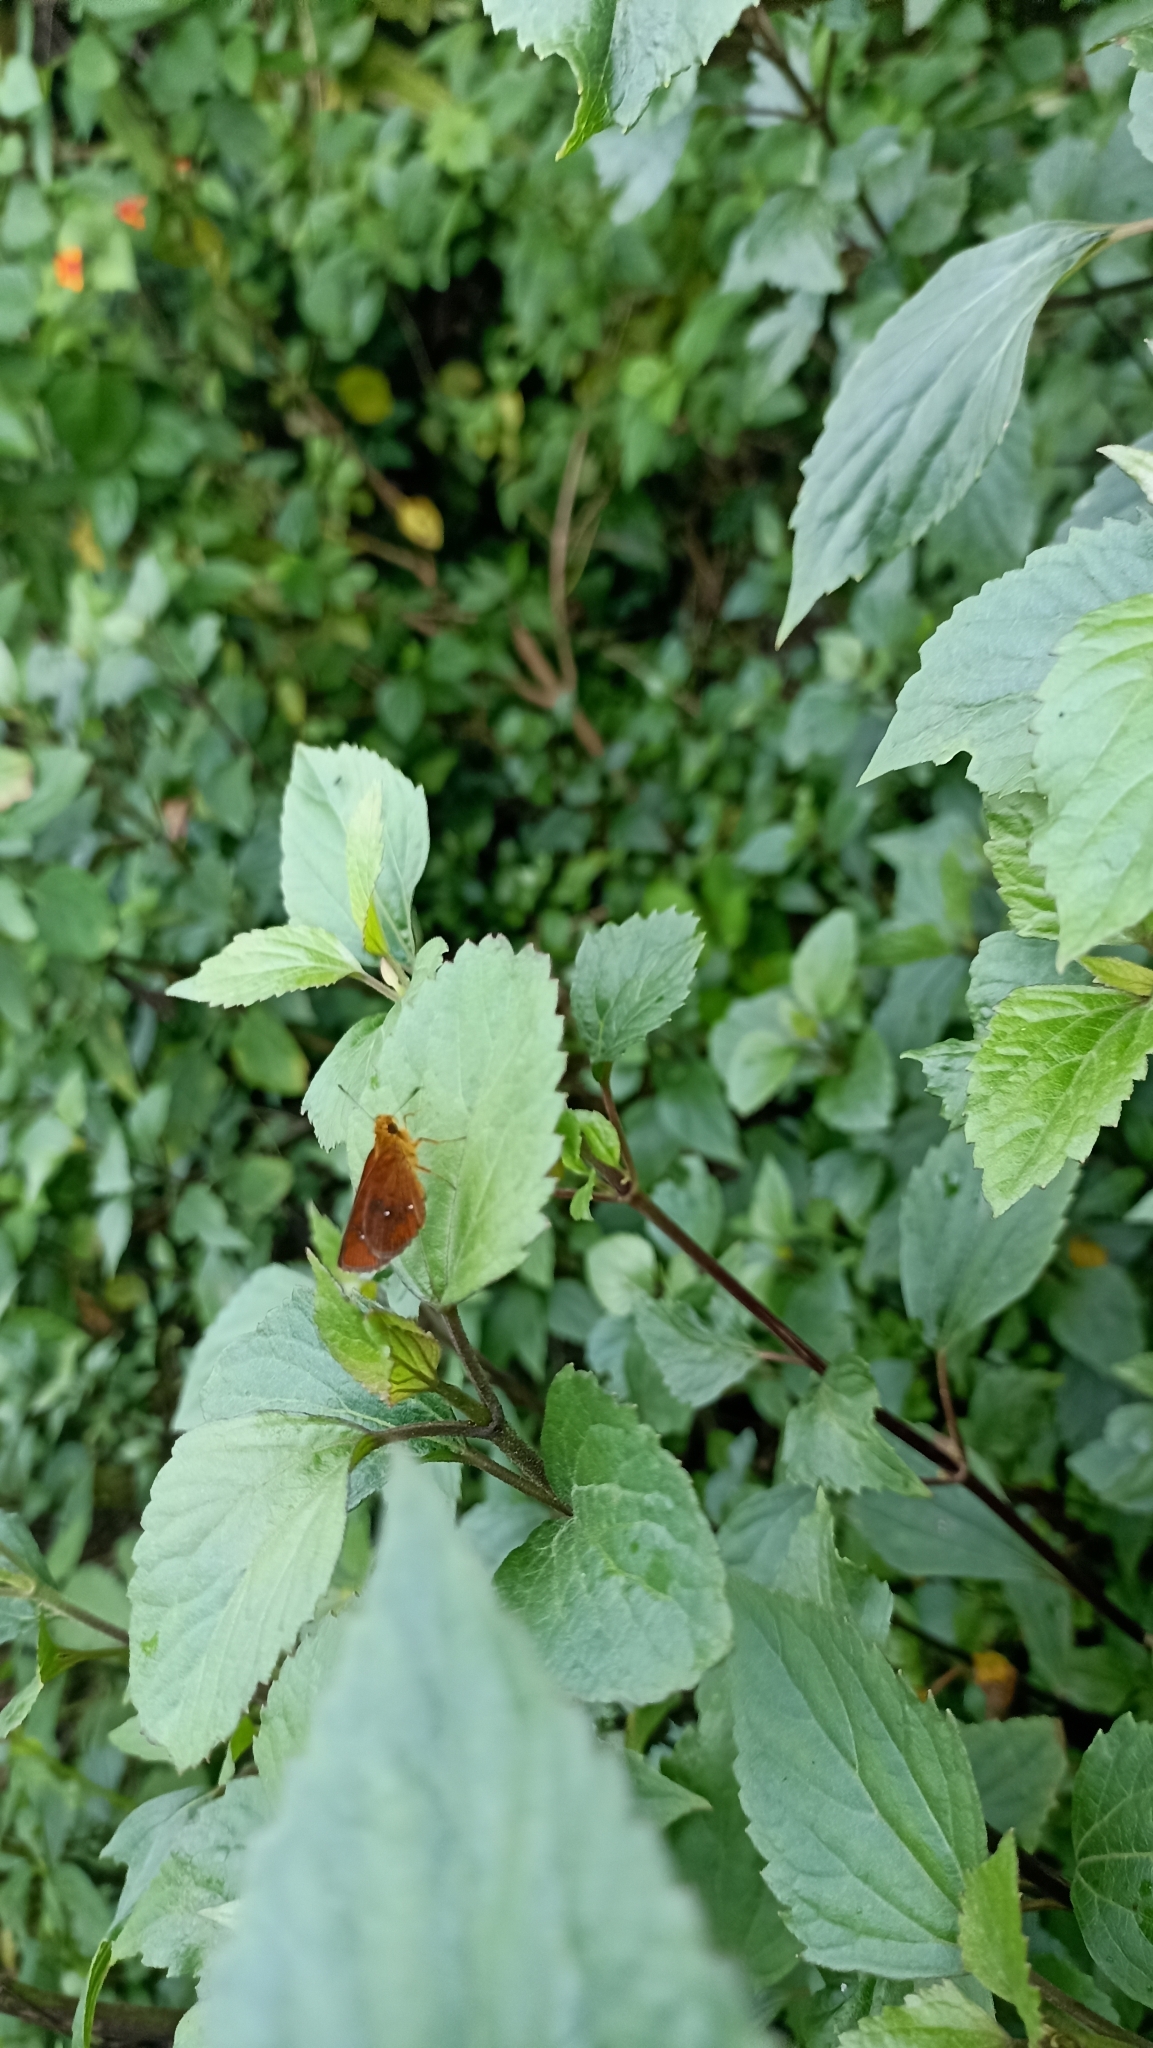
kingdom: Animalia
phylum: Arthropoda
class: Insecta
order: Lepidoptera
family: Hesperiidae
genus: Iambrix
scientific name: Iambrix salsala
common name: Chestnut bob
